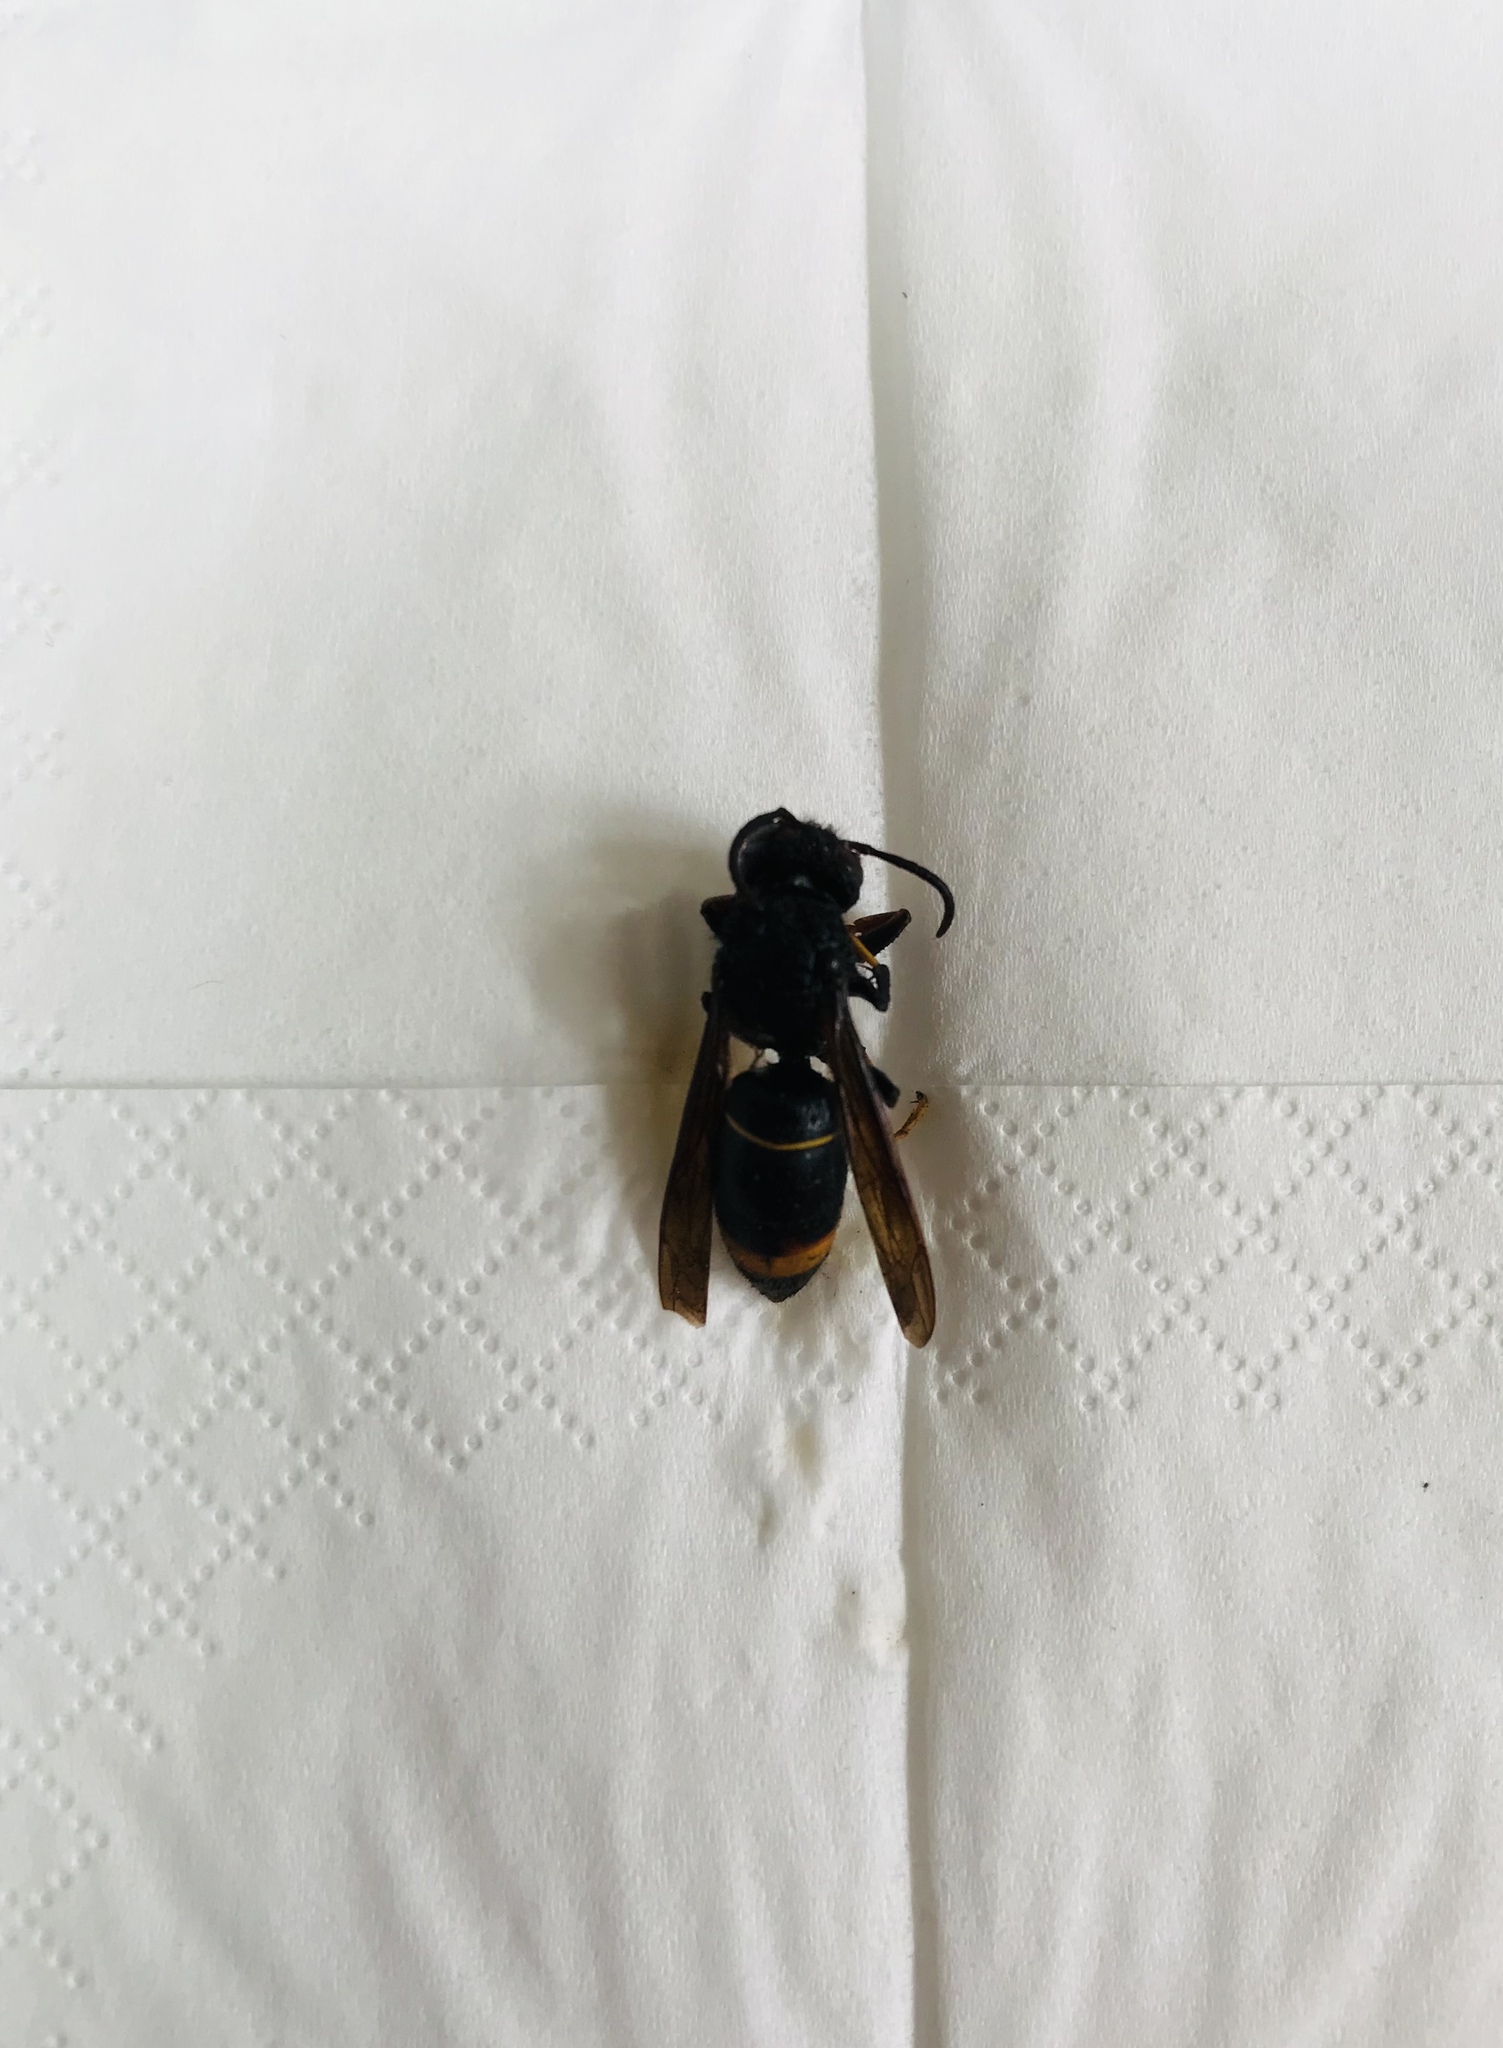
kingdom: Animalia
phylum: Arthropoda
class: Insecta
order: Hymenoptera
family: Vespidae
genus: Vespa
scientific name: Vespa velutina
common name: Asian hornet
